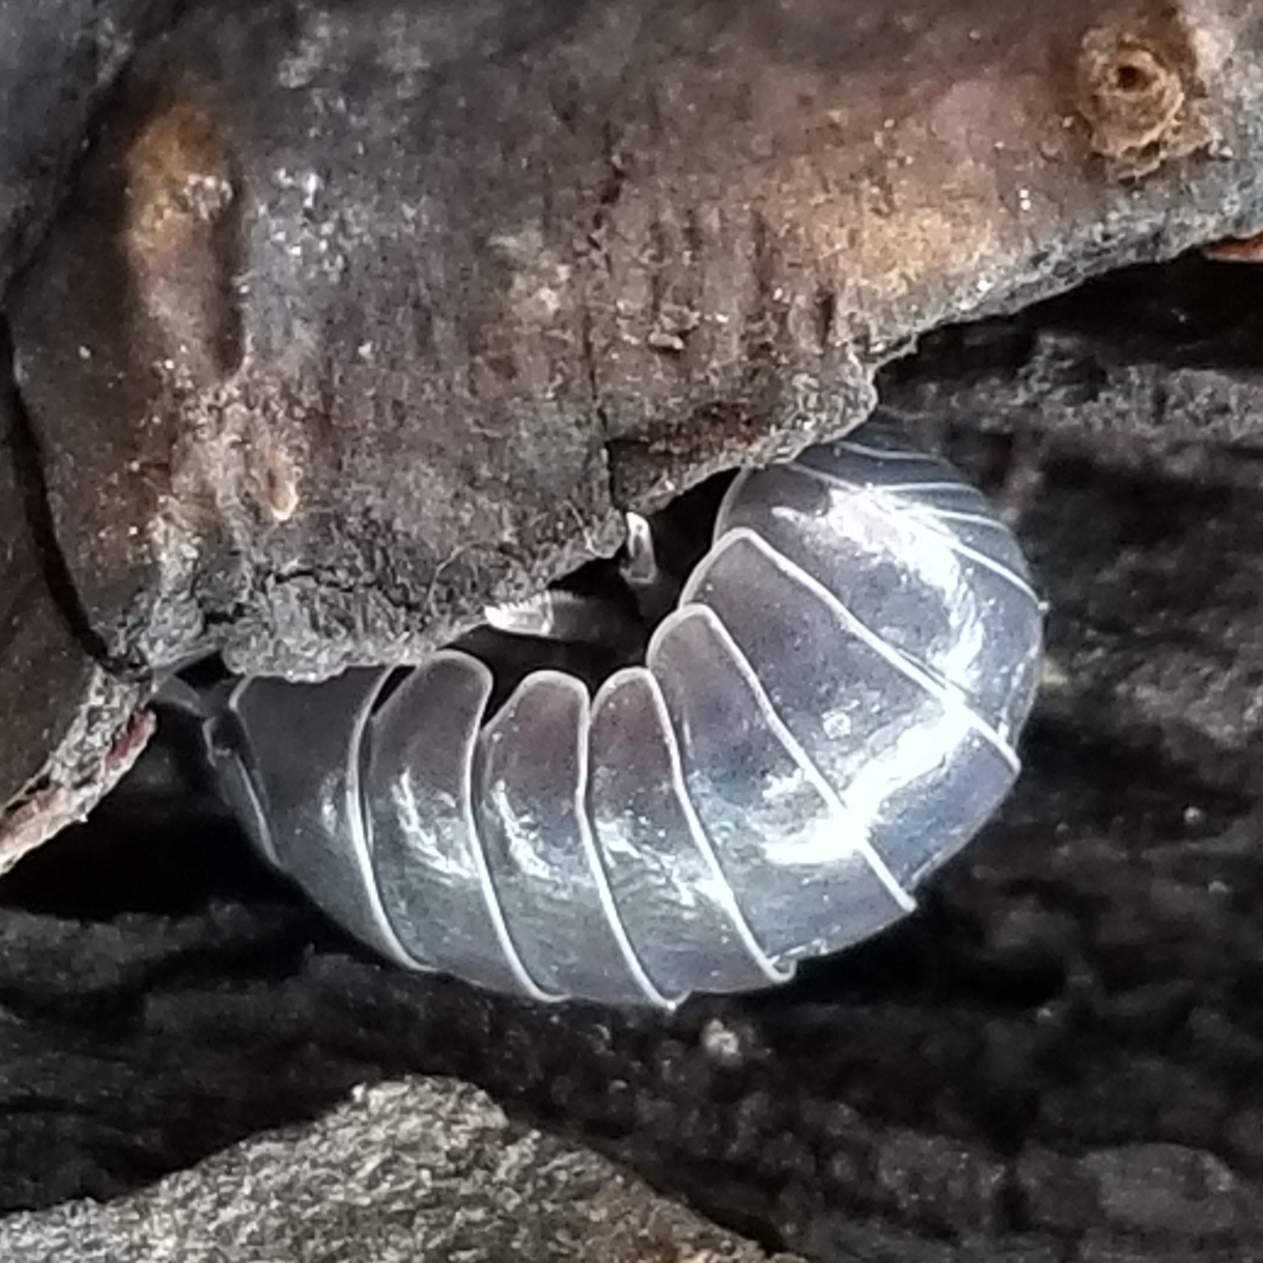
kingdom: Animalia
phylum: Arthropoda
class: Malacostraca
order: Isopoda
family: Armadillidiidae
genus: Armadillidium
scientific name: Armadillidium vulgare
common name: Common pill woodlouse
